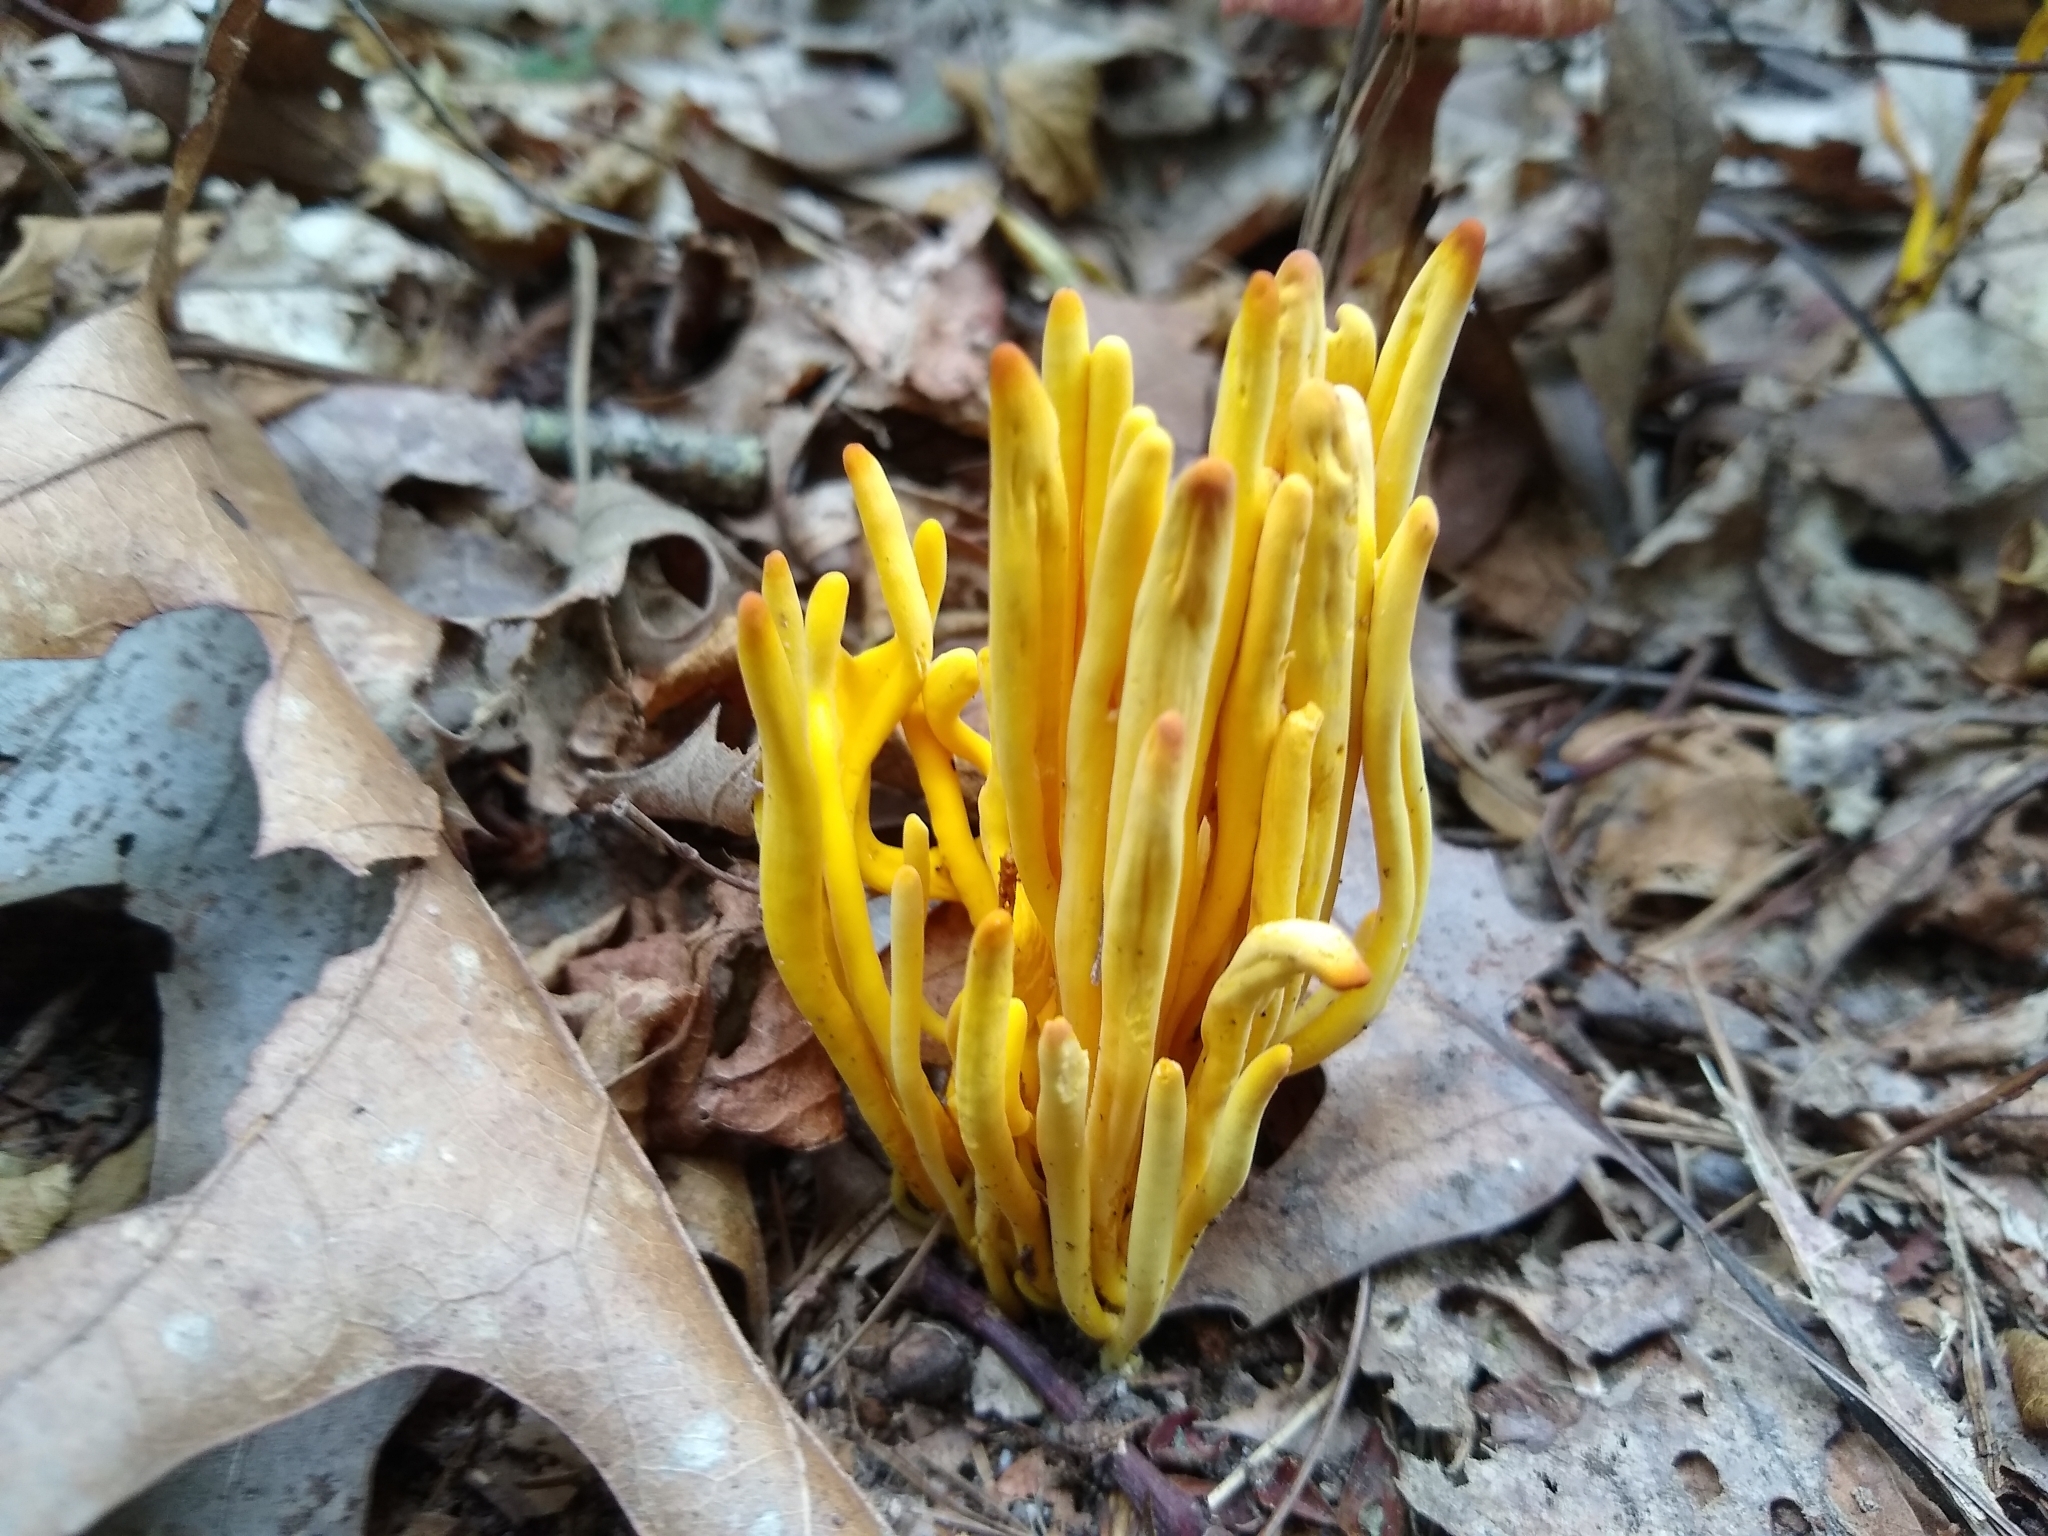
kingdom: Fungi
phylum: Basidiomycota
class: Agaricomycetes
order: Agaricales
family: Clavariaceae
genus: Clavulinopsis
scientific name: Clavulinopsis fusiformis
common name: Golden spindles
